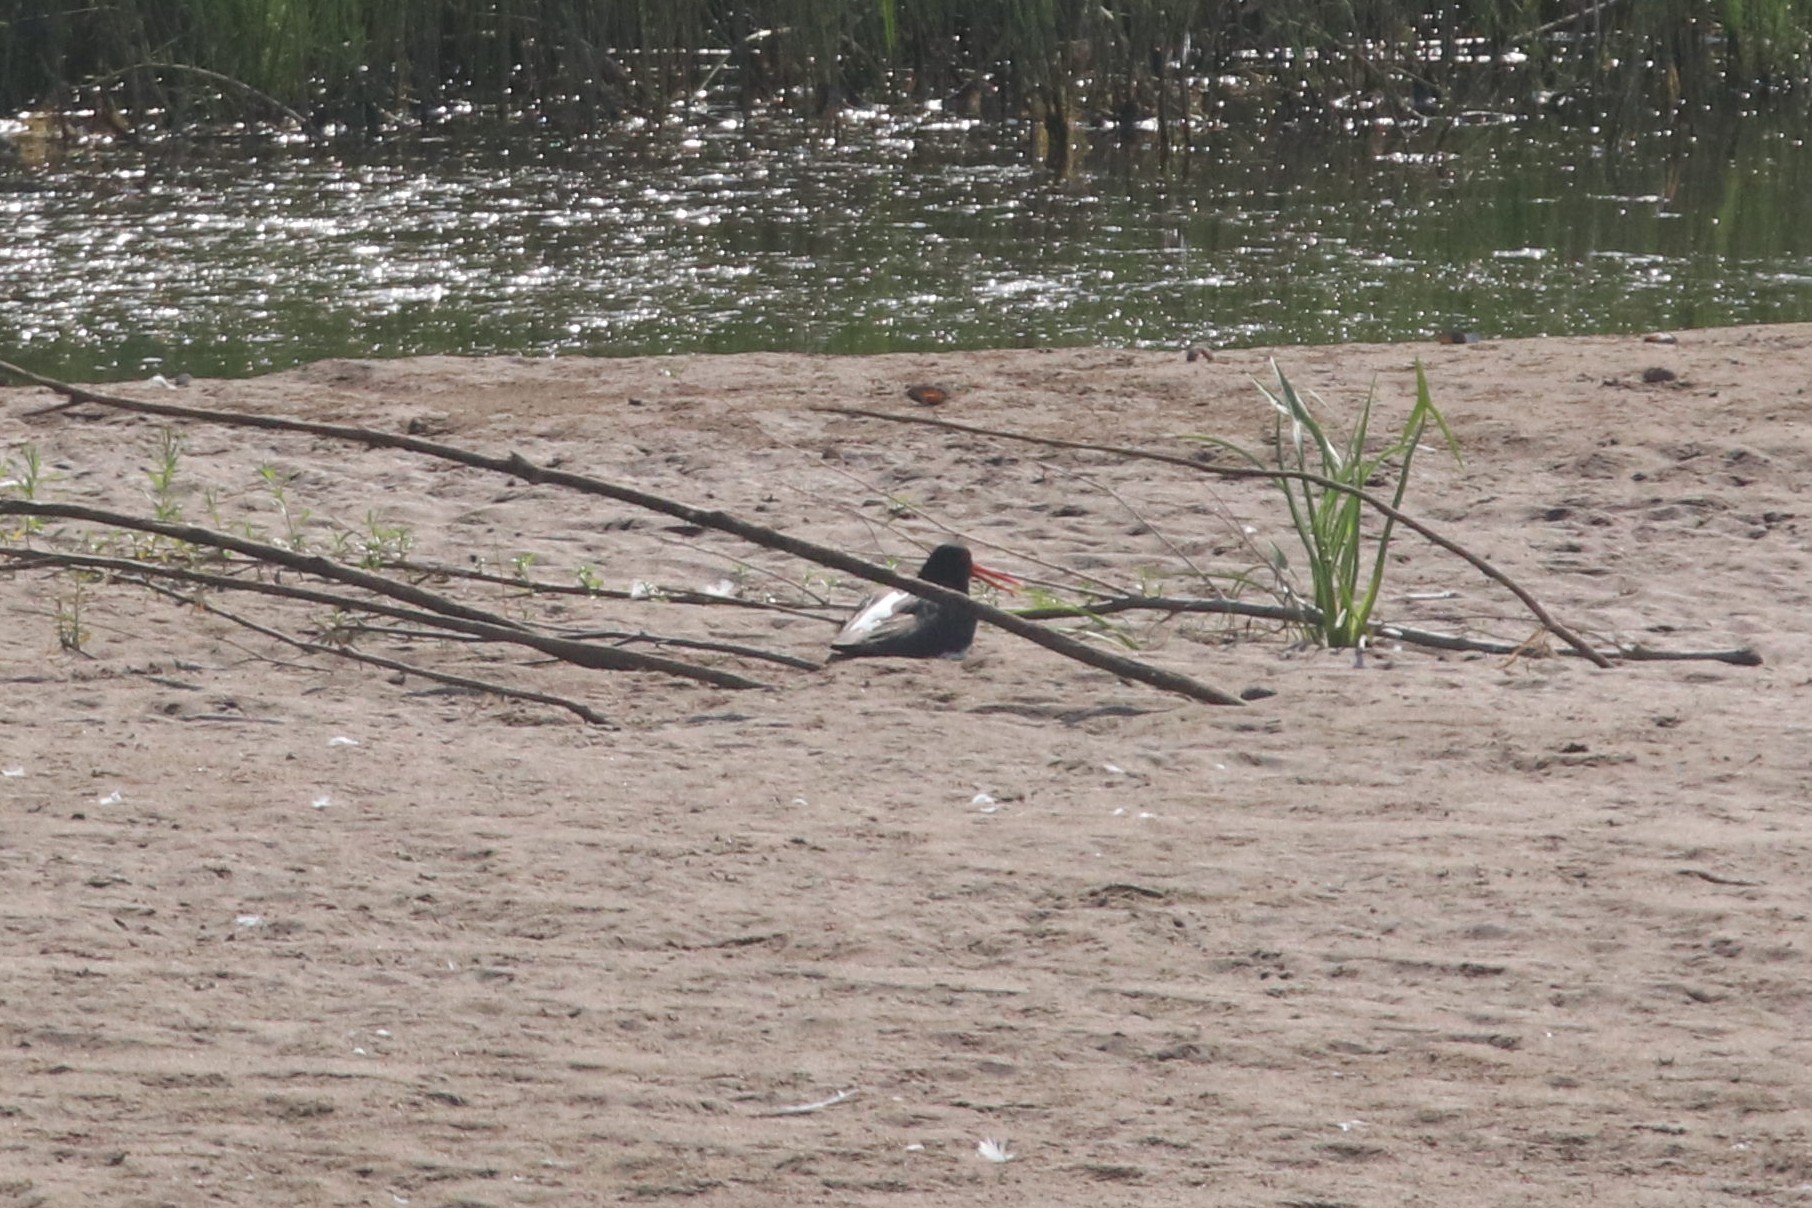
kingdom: Animalia
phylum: Chordata
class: Aves
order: Charadriiformes
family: Haematopodidae
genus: Haematopus
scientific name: Haematopus ostralegus
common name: Eurasian oystercatcher
